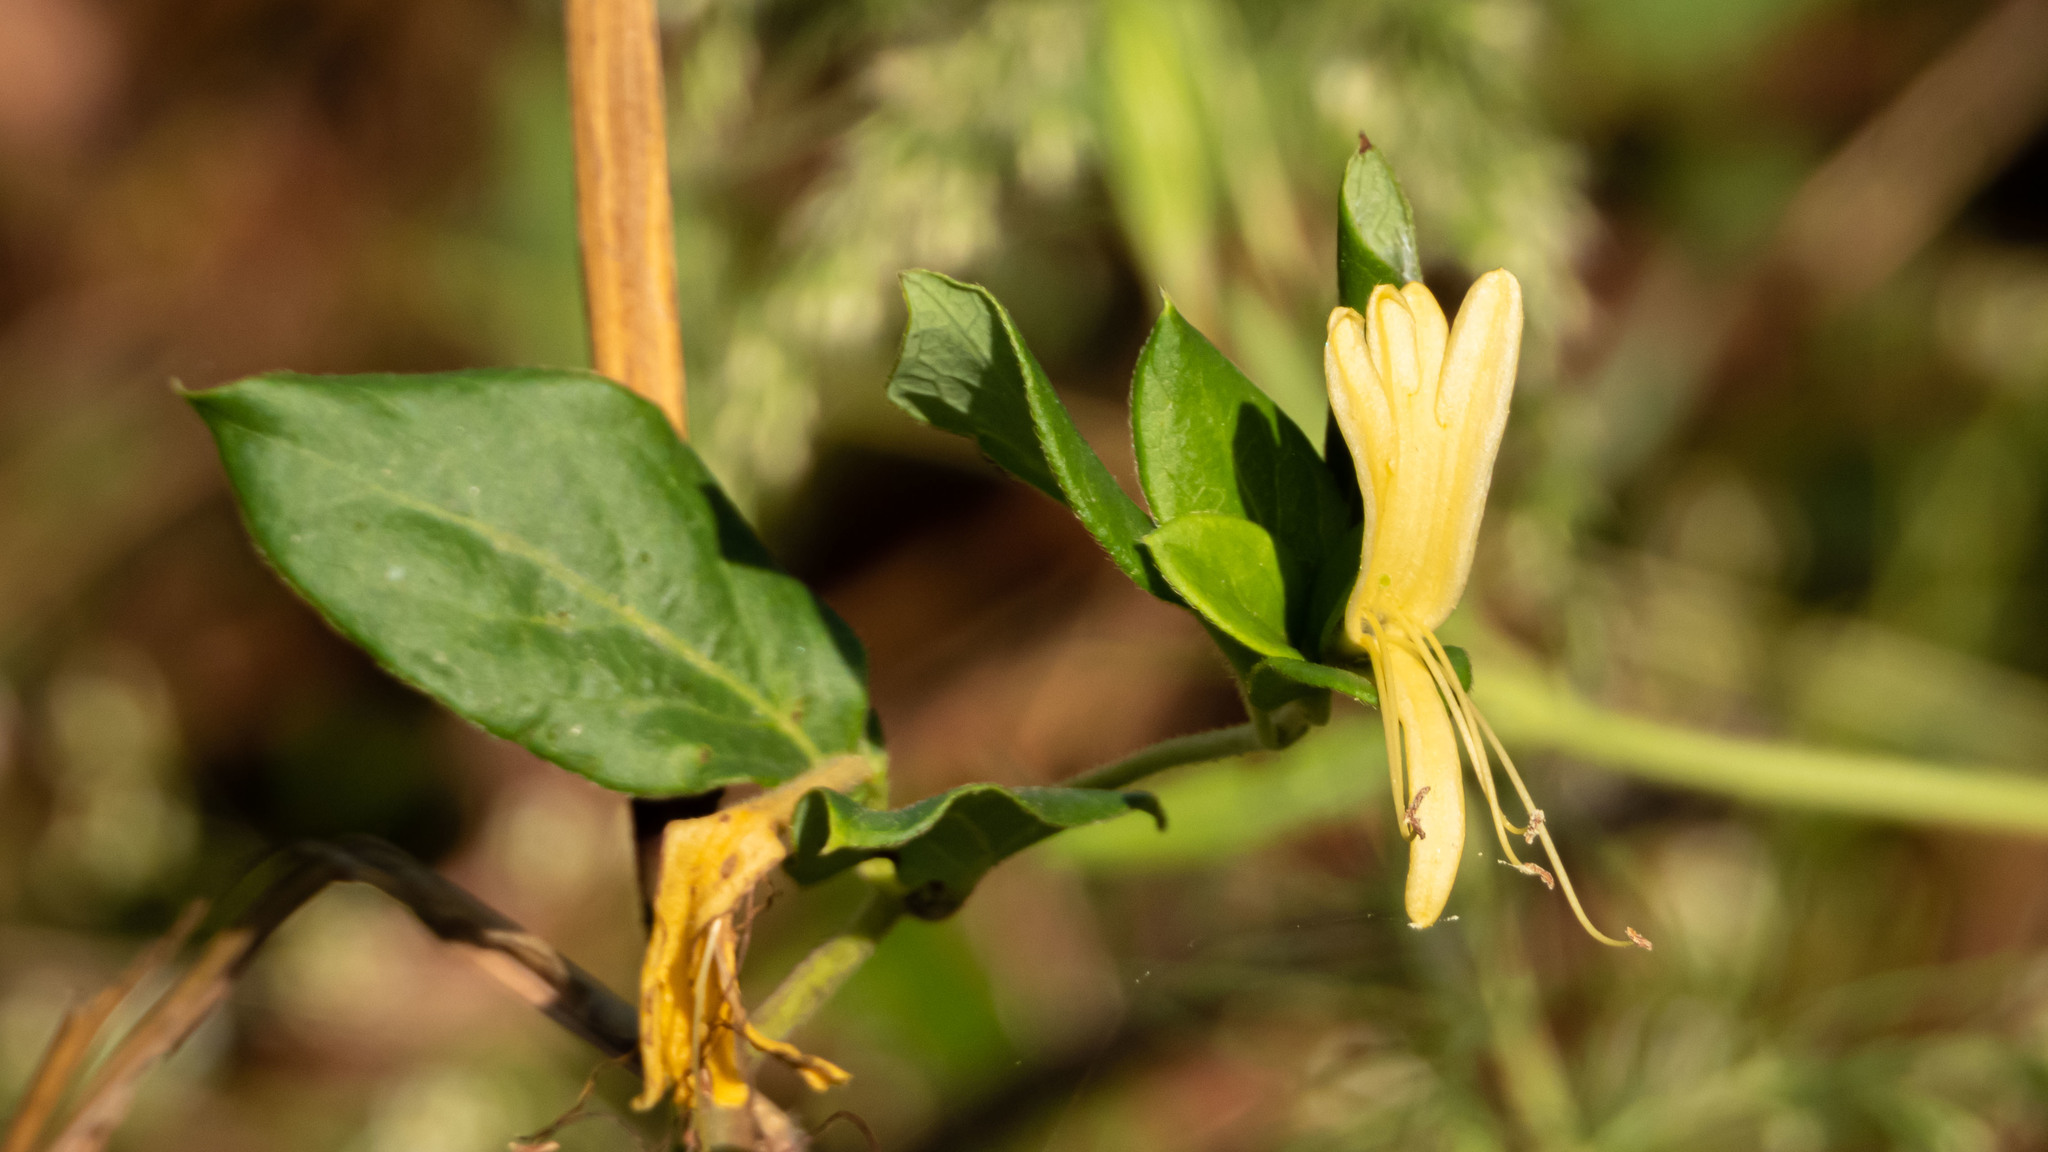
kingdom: Plantae
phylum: Tracheophyta
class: Magnoliopsida
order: Dipsacales
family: Caprifoliaceae
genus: Lonicera
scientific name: Lonicera japonica
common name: Japanese honeysuckle
